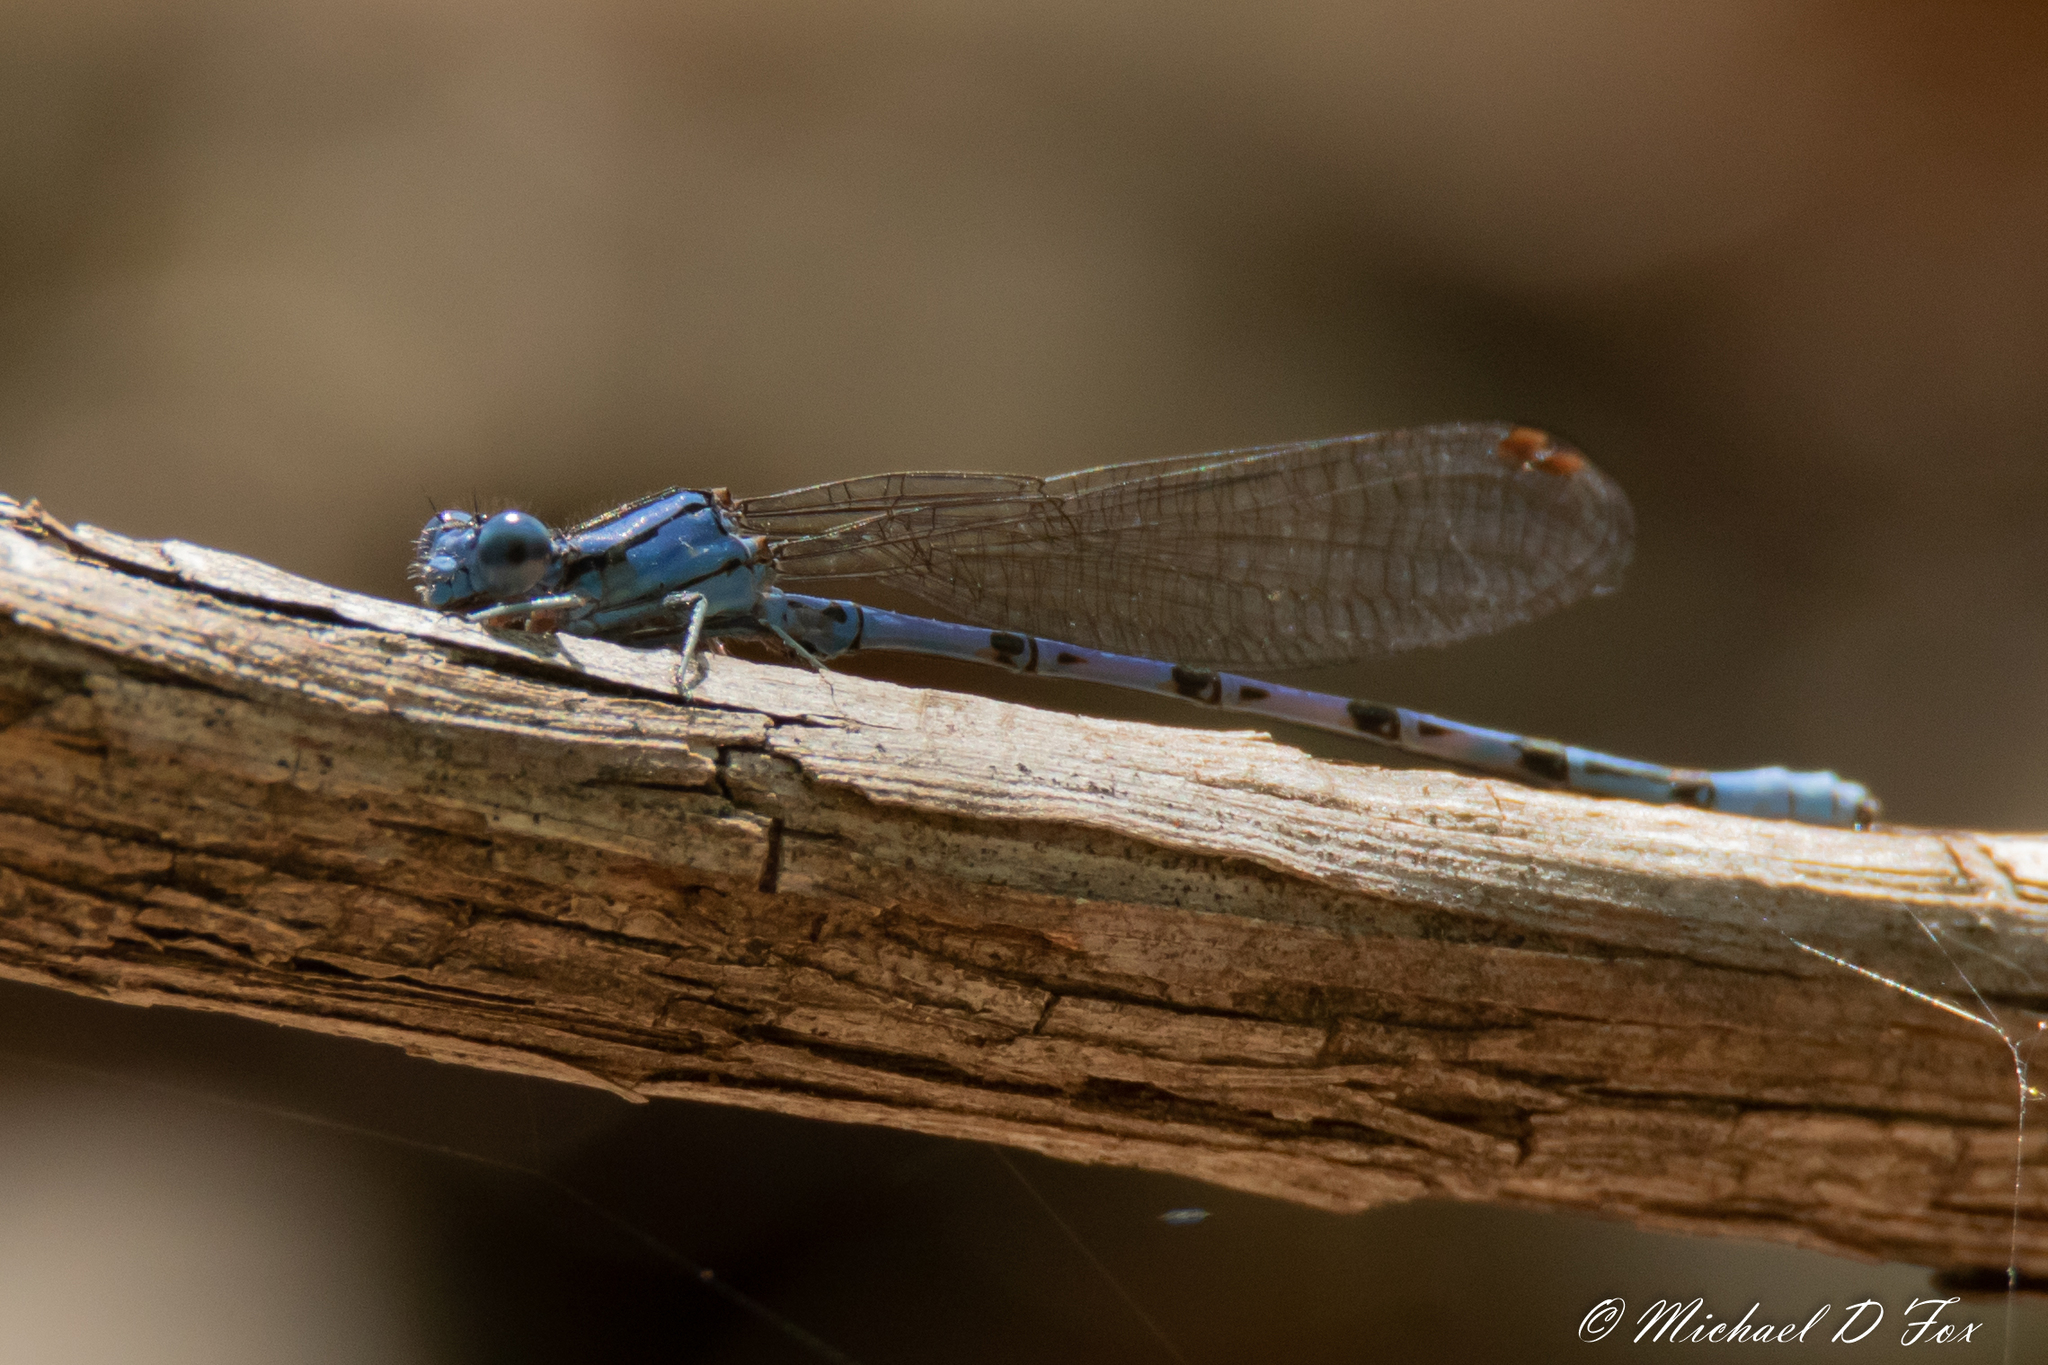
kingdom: Animalia
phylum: Arthropoda
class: Insecta
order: Odonata
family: Coenagrionidae
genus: Argia
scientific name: Argia funebris
